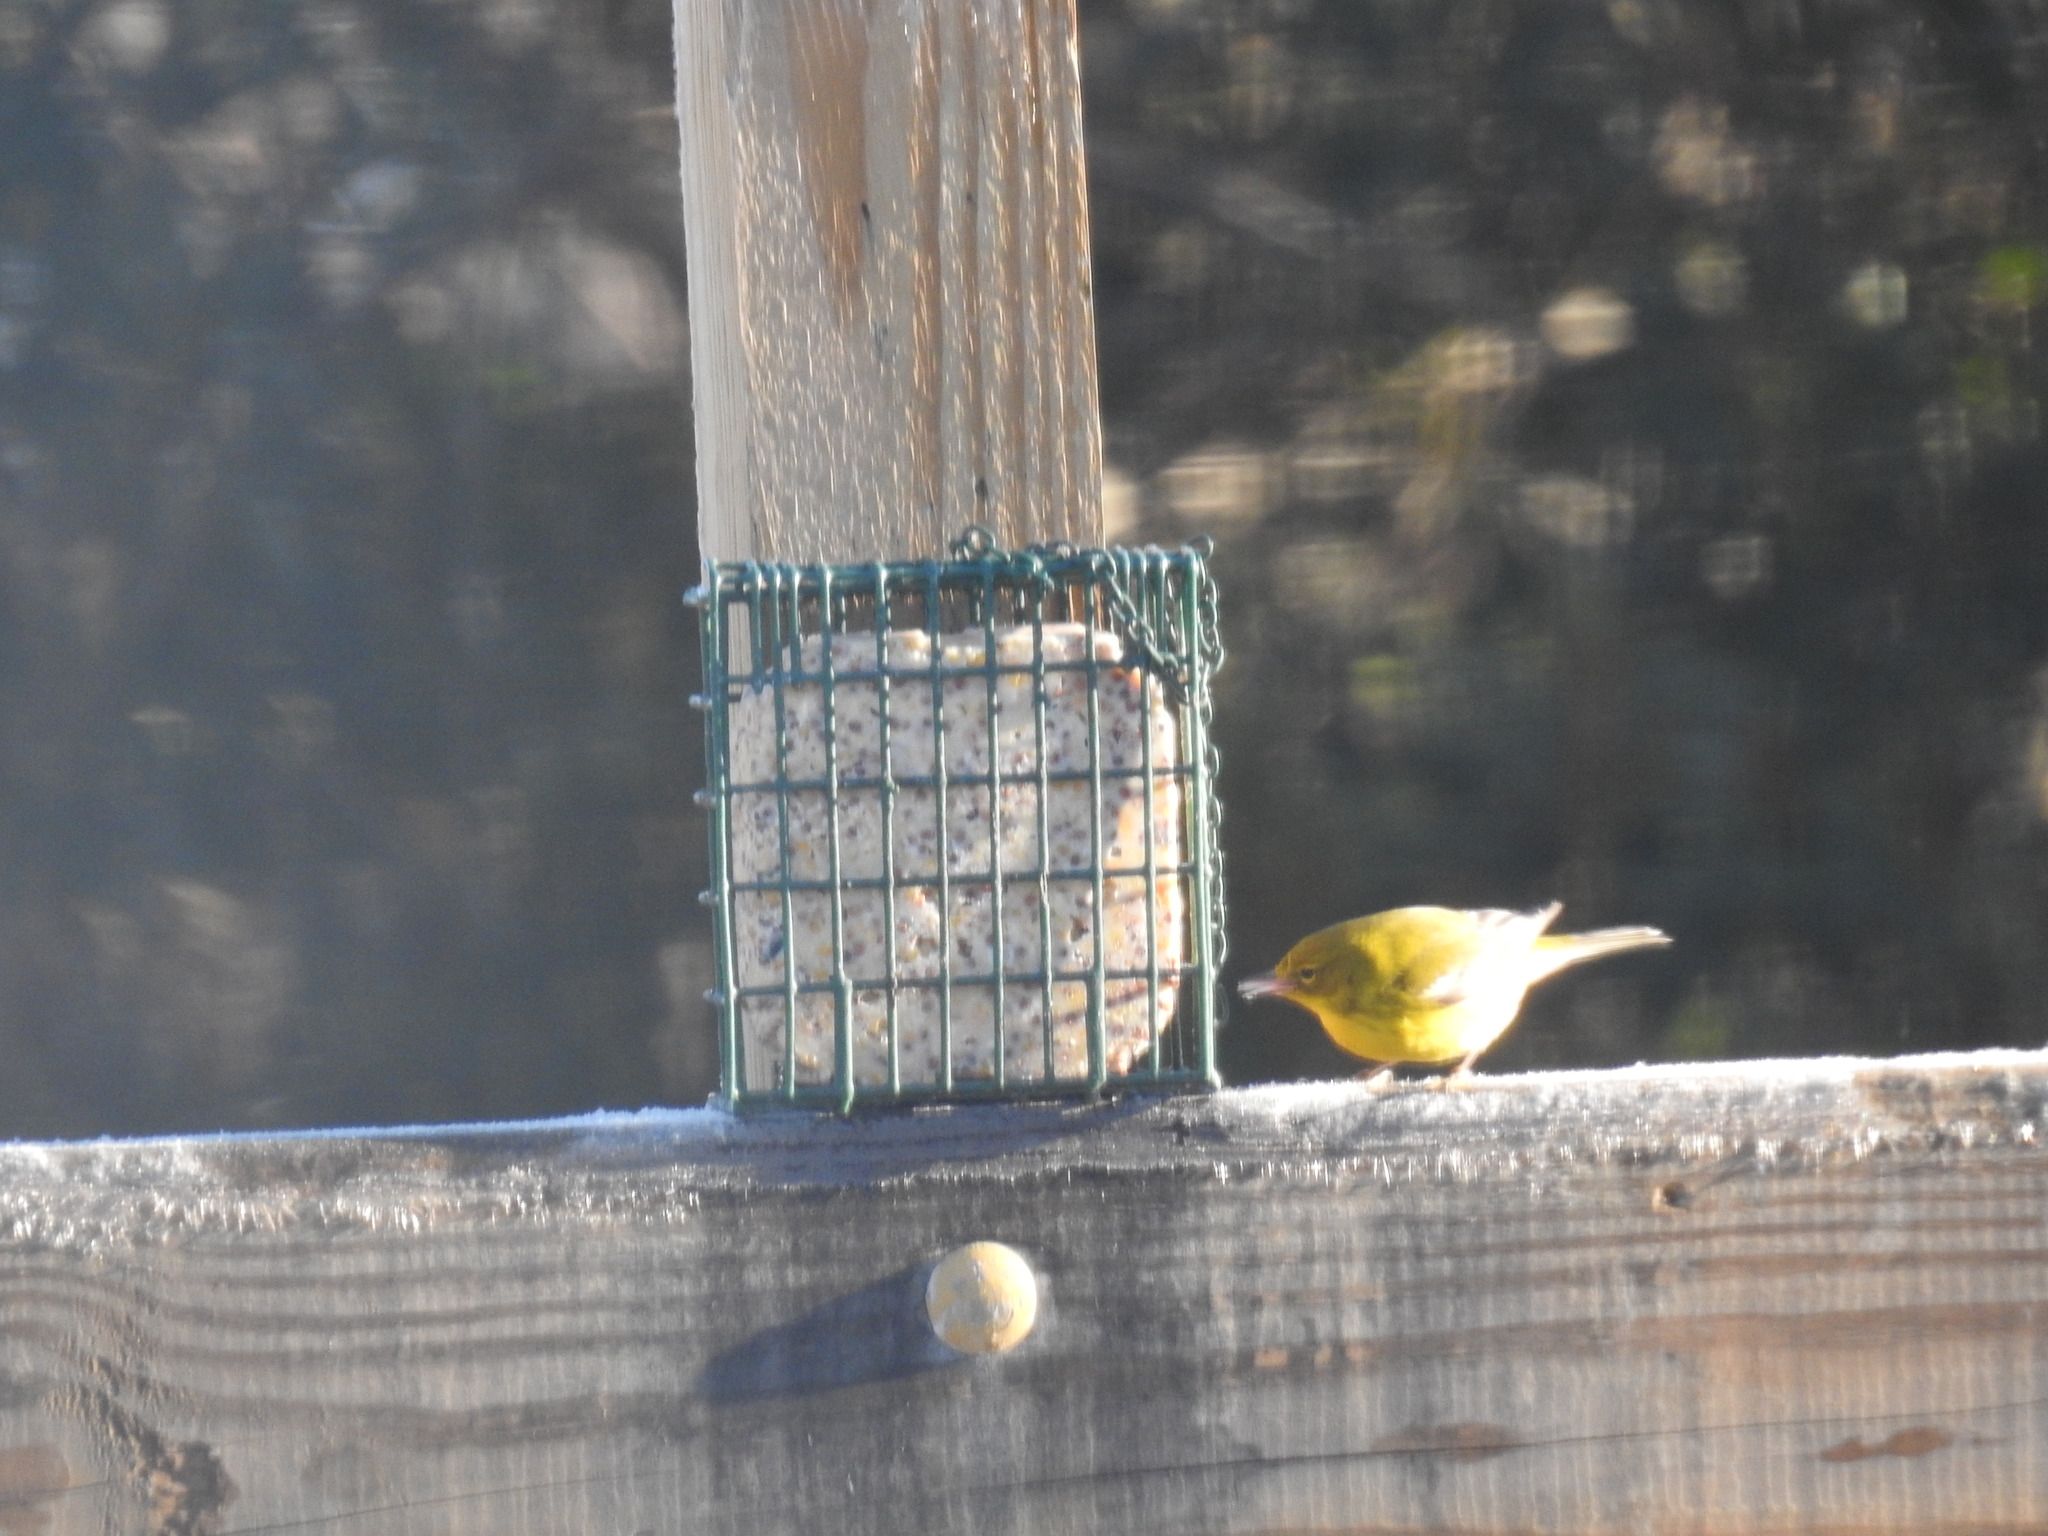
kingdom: Animalia
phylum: Chordata
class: Aves
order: Passeriformes
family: Parulidae
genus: Setophaga
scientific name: Setophaga pinus
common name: Pine warbler
